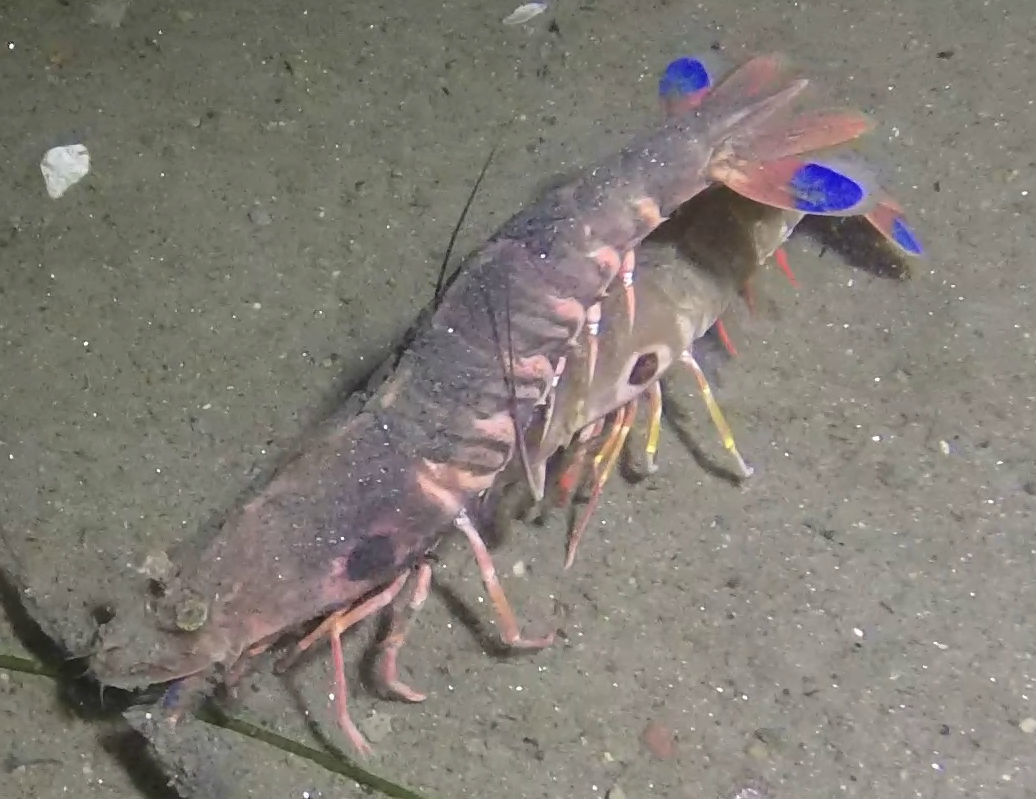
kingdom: Animalia
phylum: Arthropoda
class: Malacostraca
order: Decapoda
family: Sicyoniidae
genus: Sicyonia
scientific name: Sicyonia penicillata
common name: Japanese shrimp
